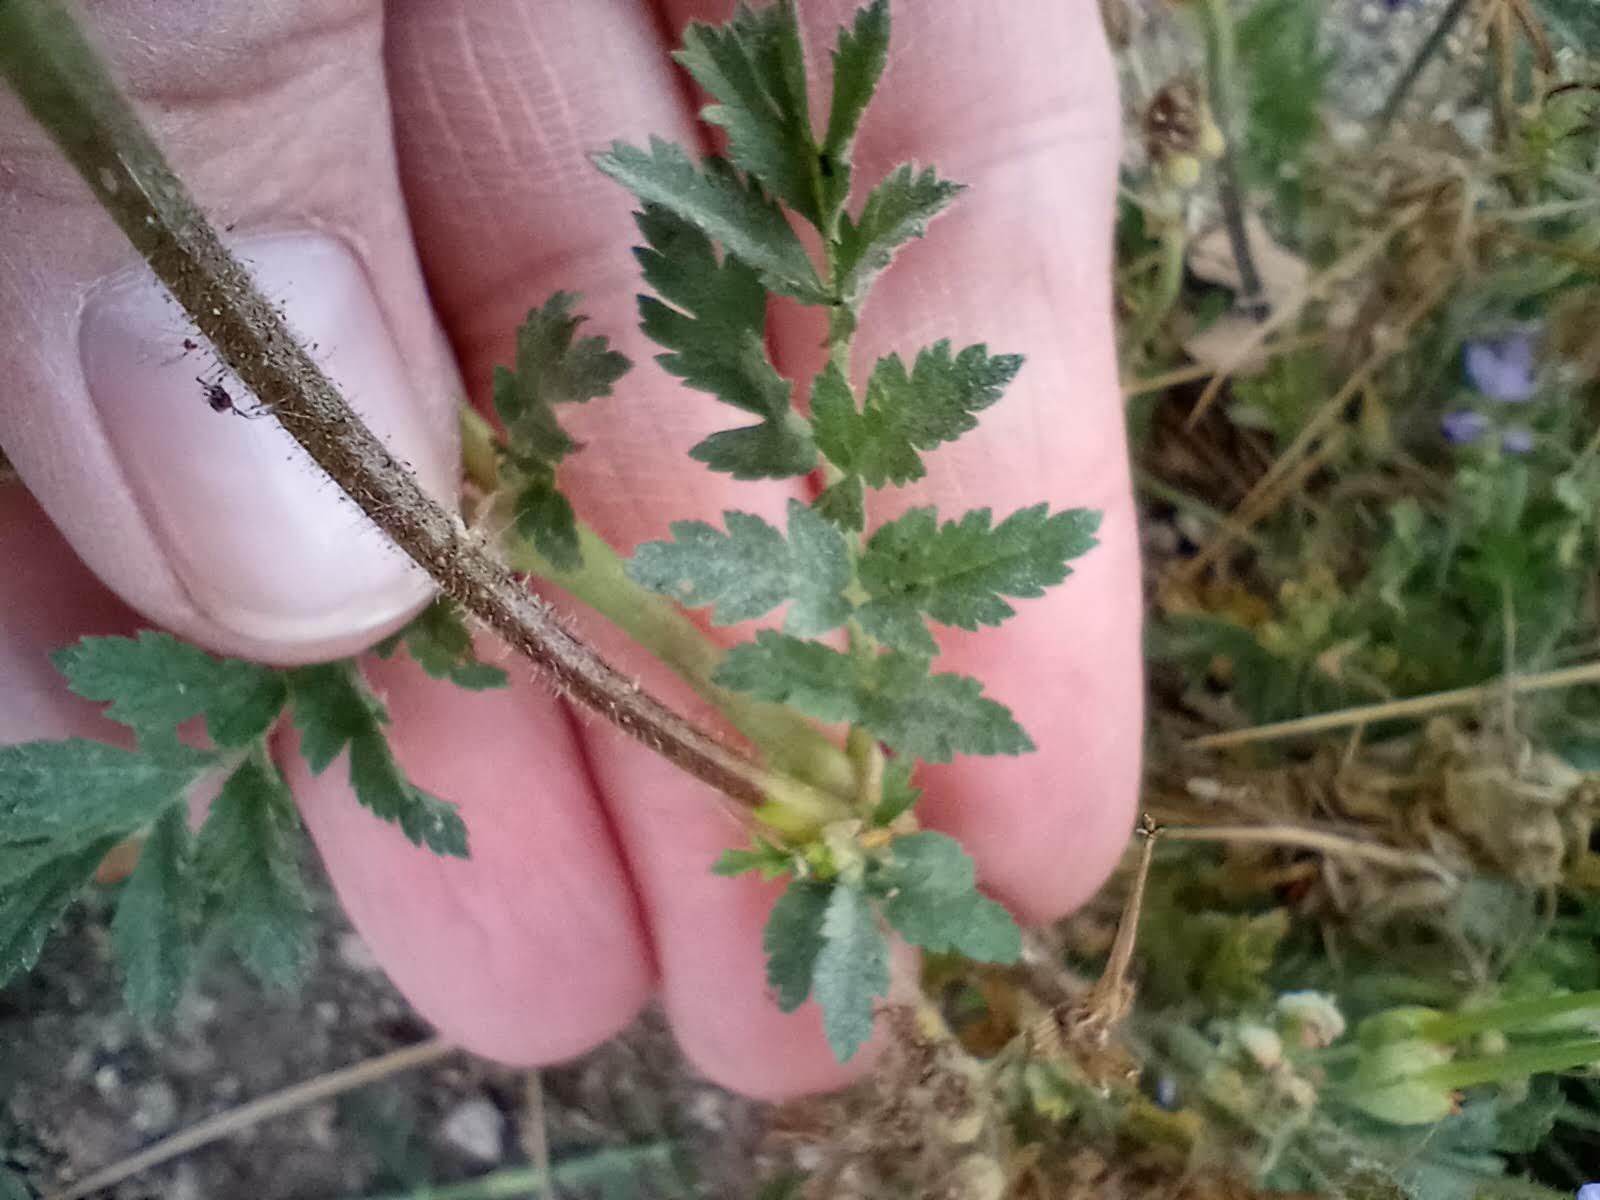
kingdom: Plantae
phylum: Tracheophyta
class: Magnoliopsida
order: Geraniales
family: Geraniaceae
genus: Erodium
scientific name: Erodium moschatum
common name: Musk stork's-bill
